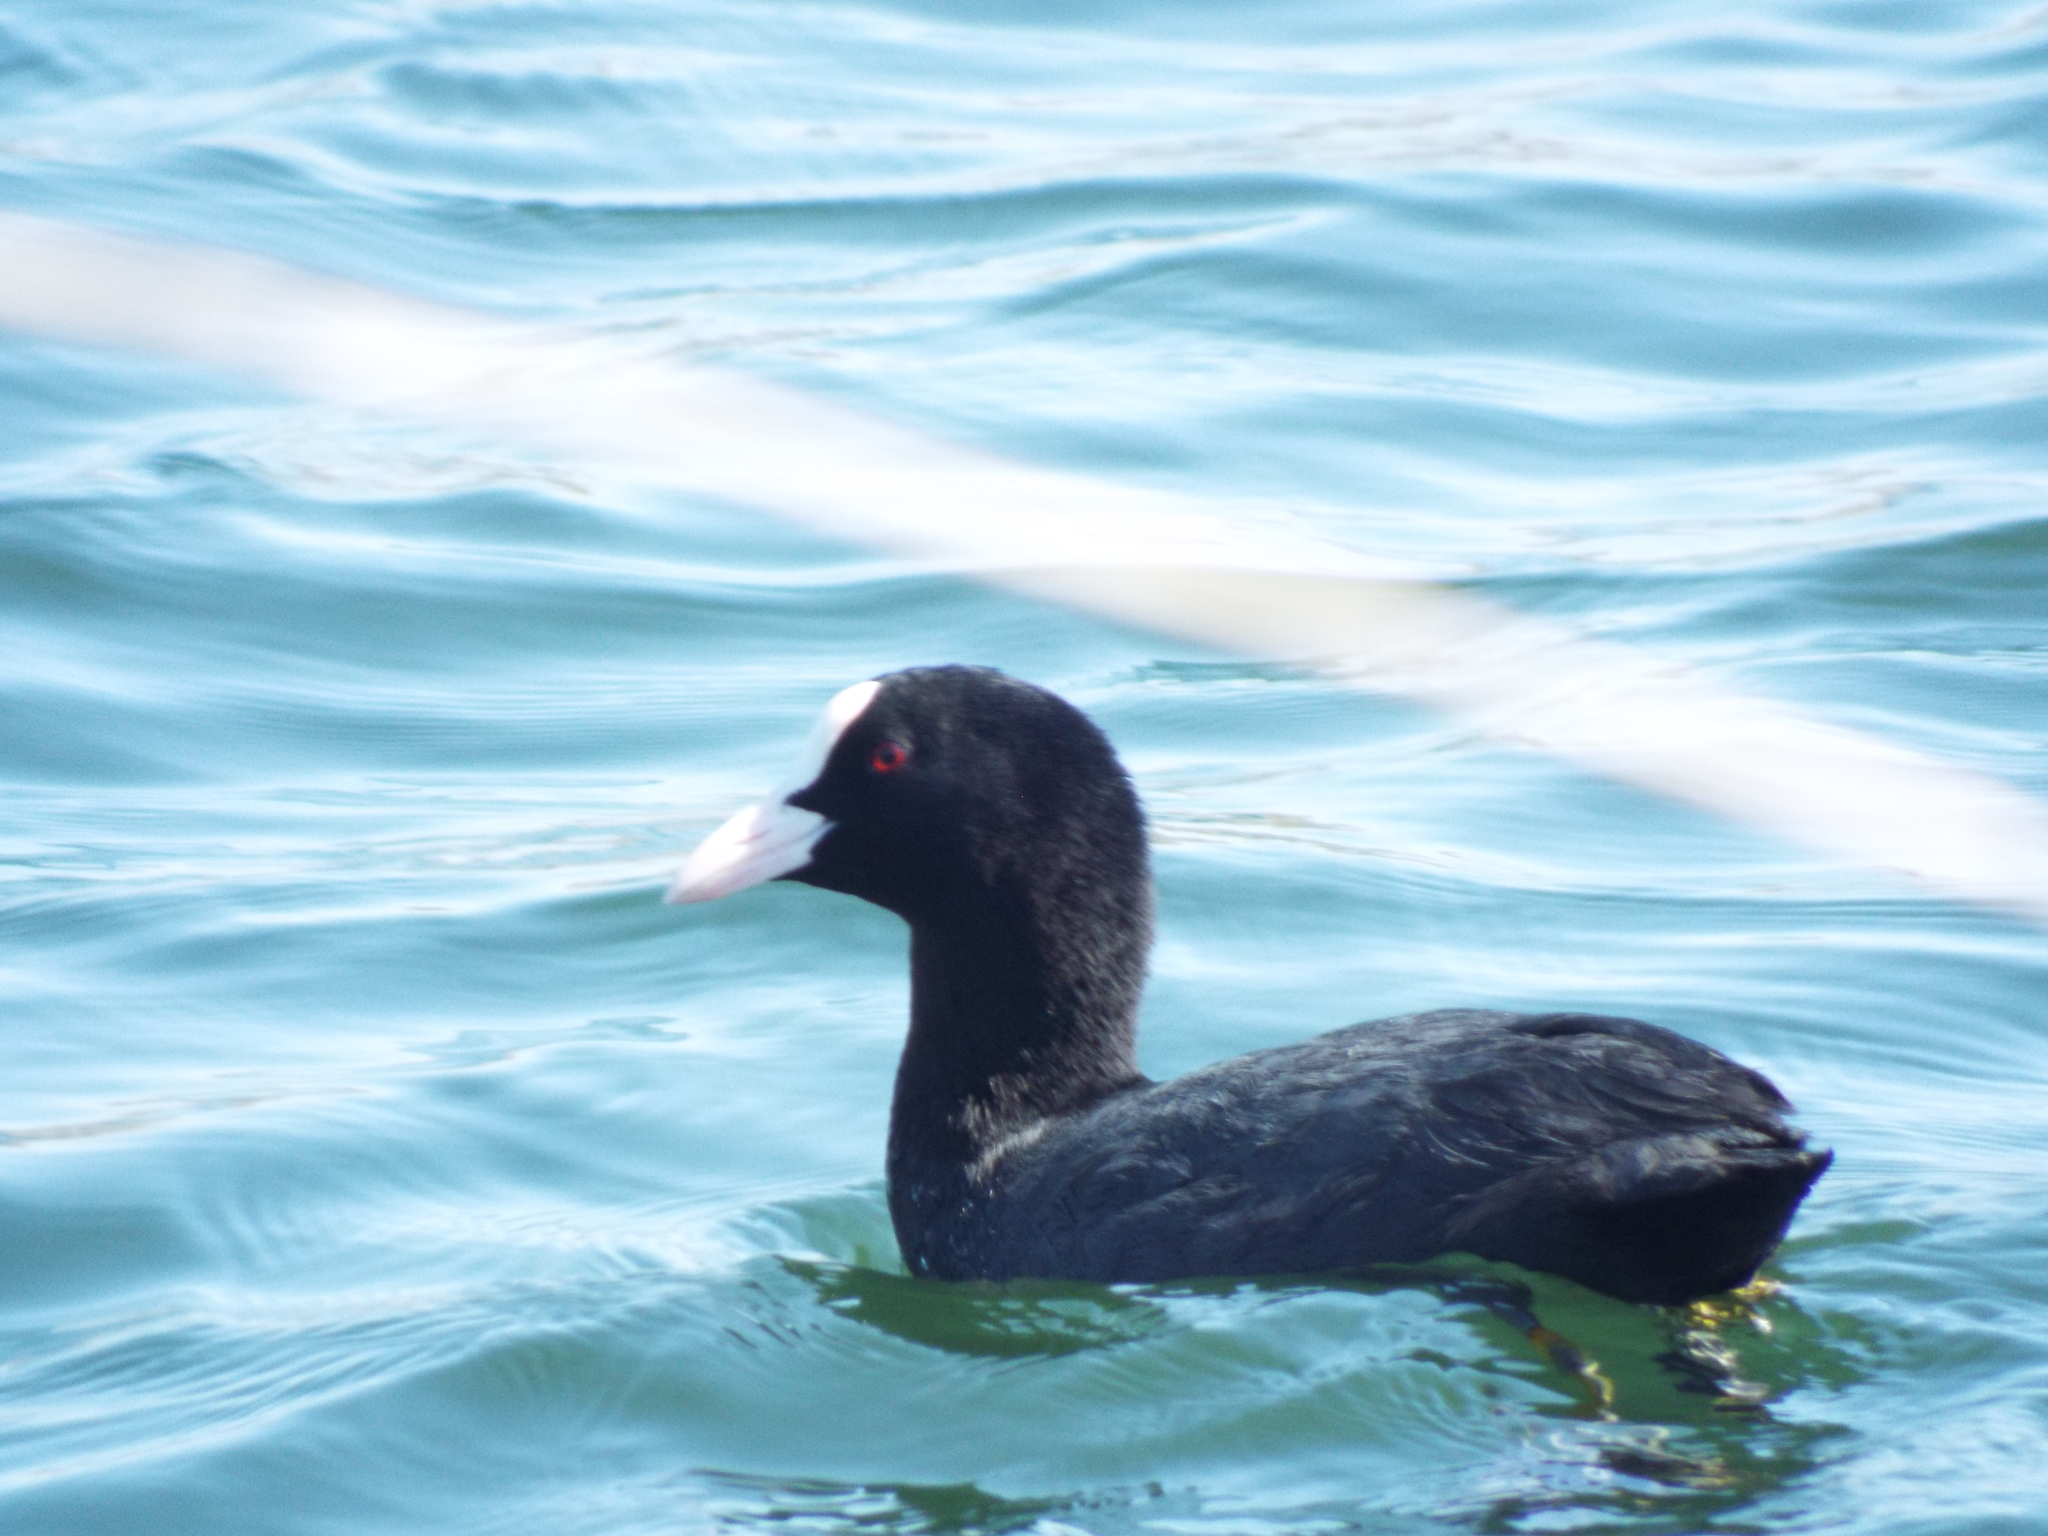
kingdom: Animalia
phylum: Chordata
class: Aves
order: Gruiformes
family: Rallidae
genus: Fulica
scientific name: Fulica atra
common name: Eurasian coot
